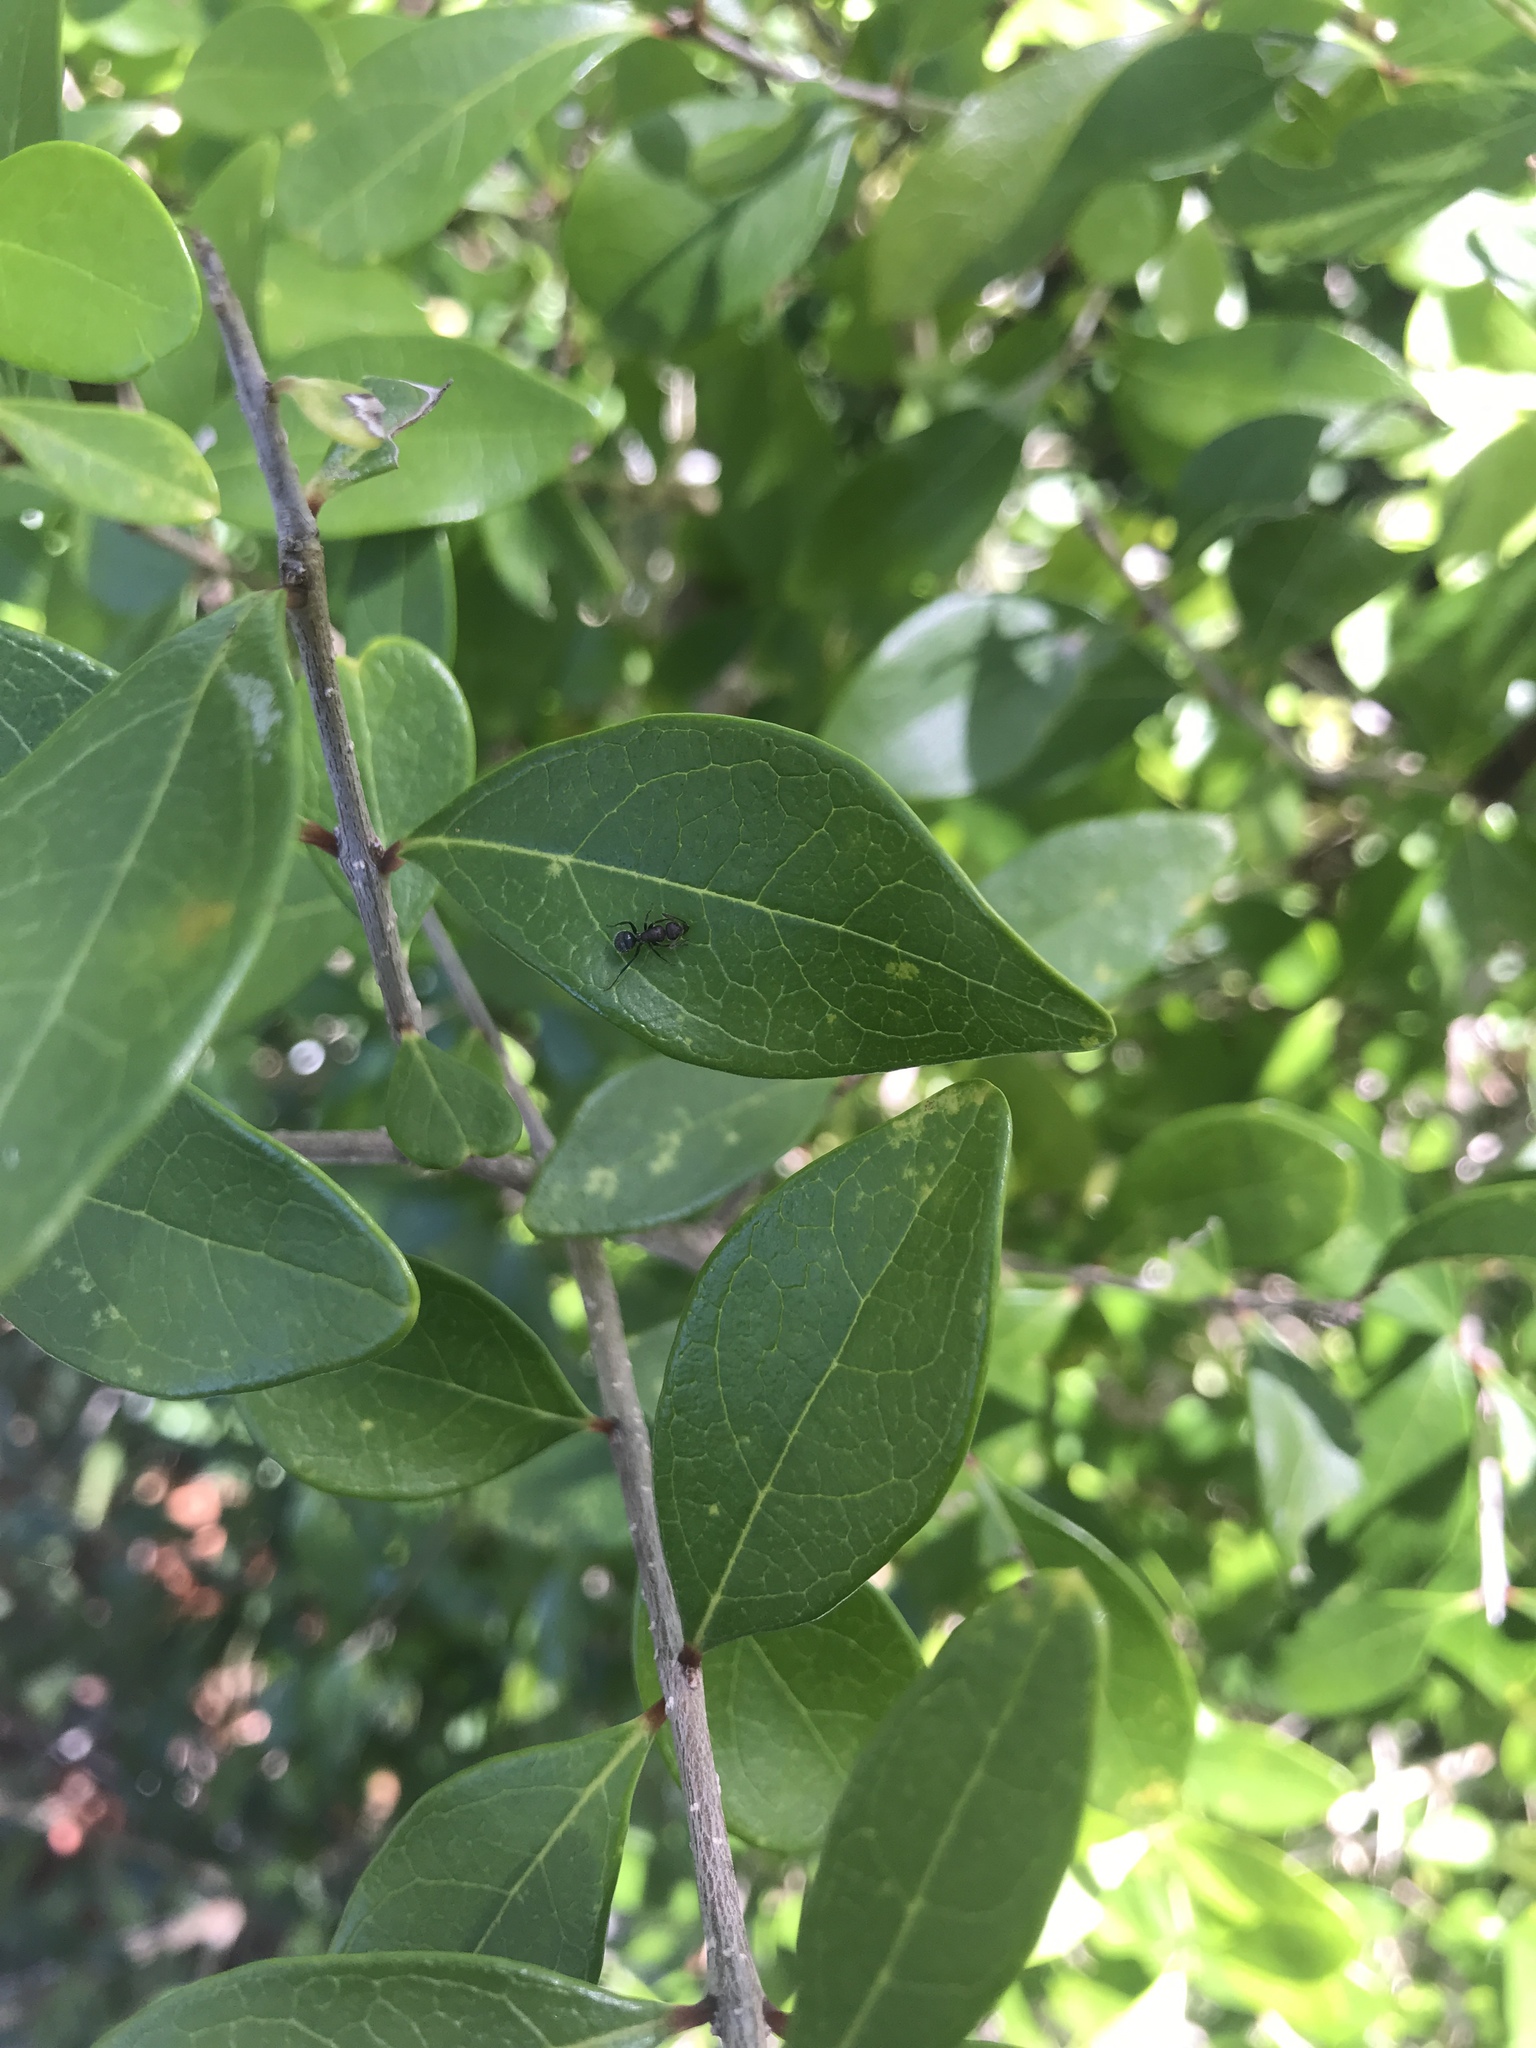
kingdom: Animalia
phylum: Arthropoda
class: Insecta
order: Hymenoptera
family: Formicidae
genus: Camponotus
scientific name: Camponotus planatus
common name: Compact carpenter ant
